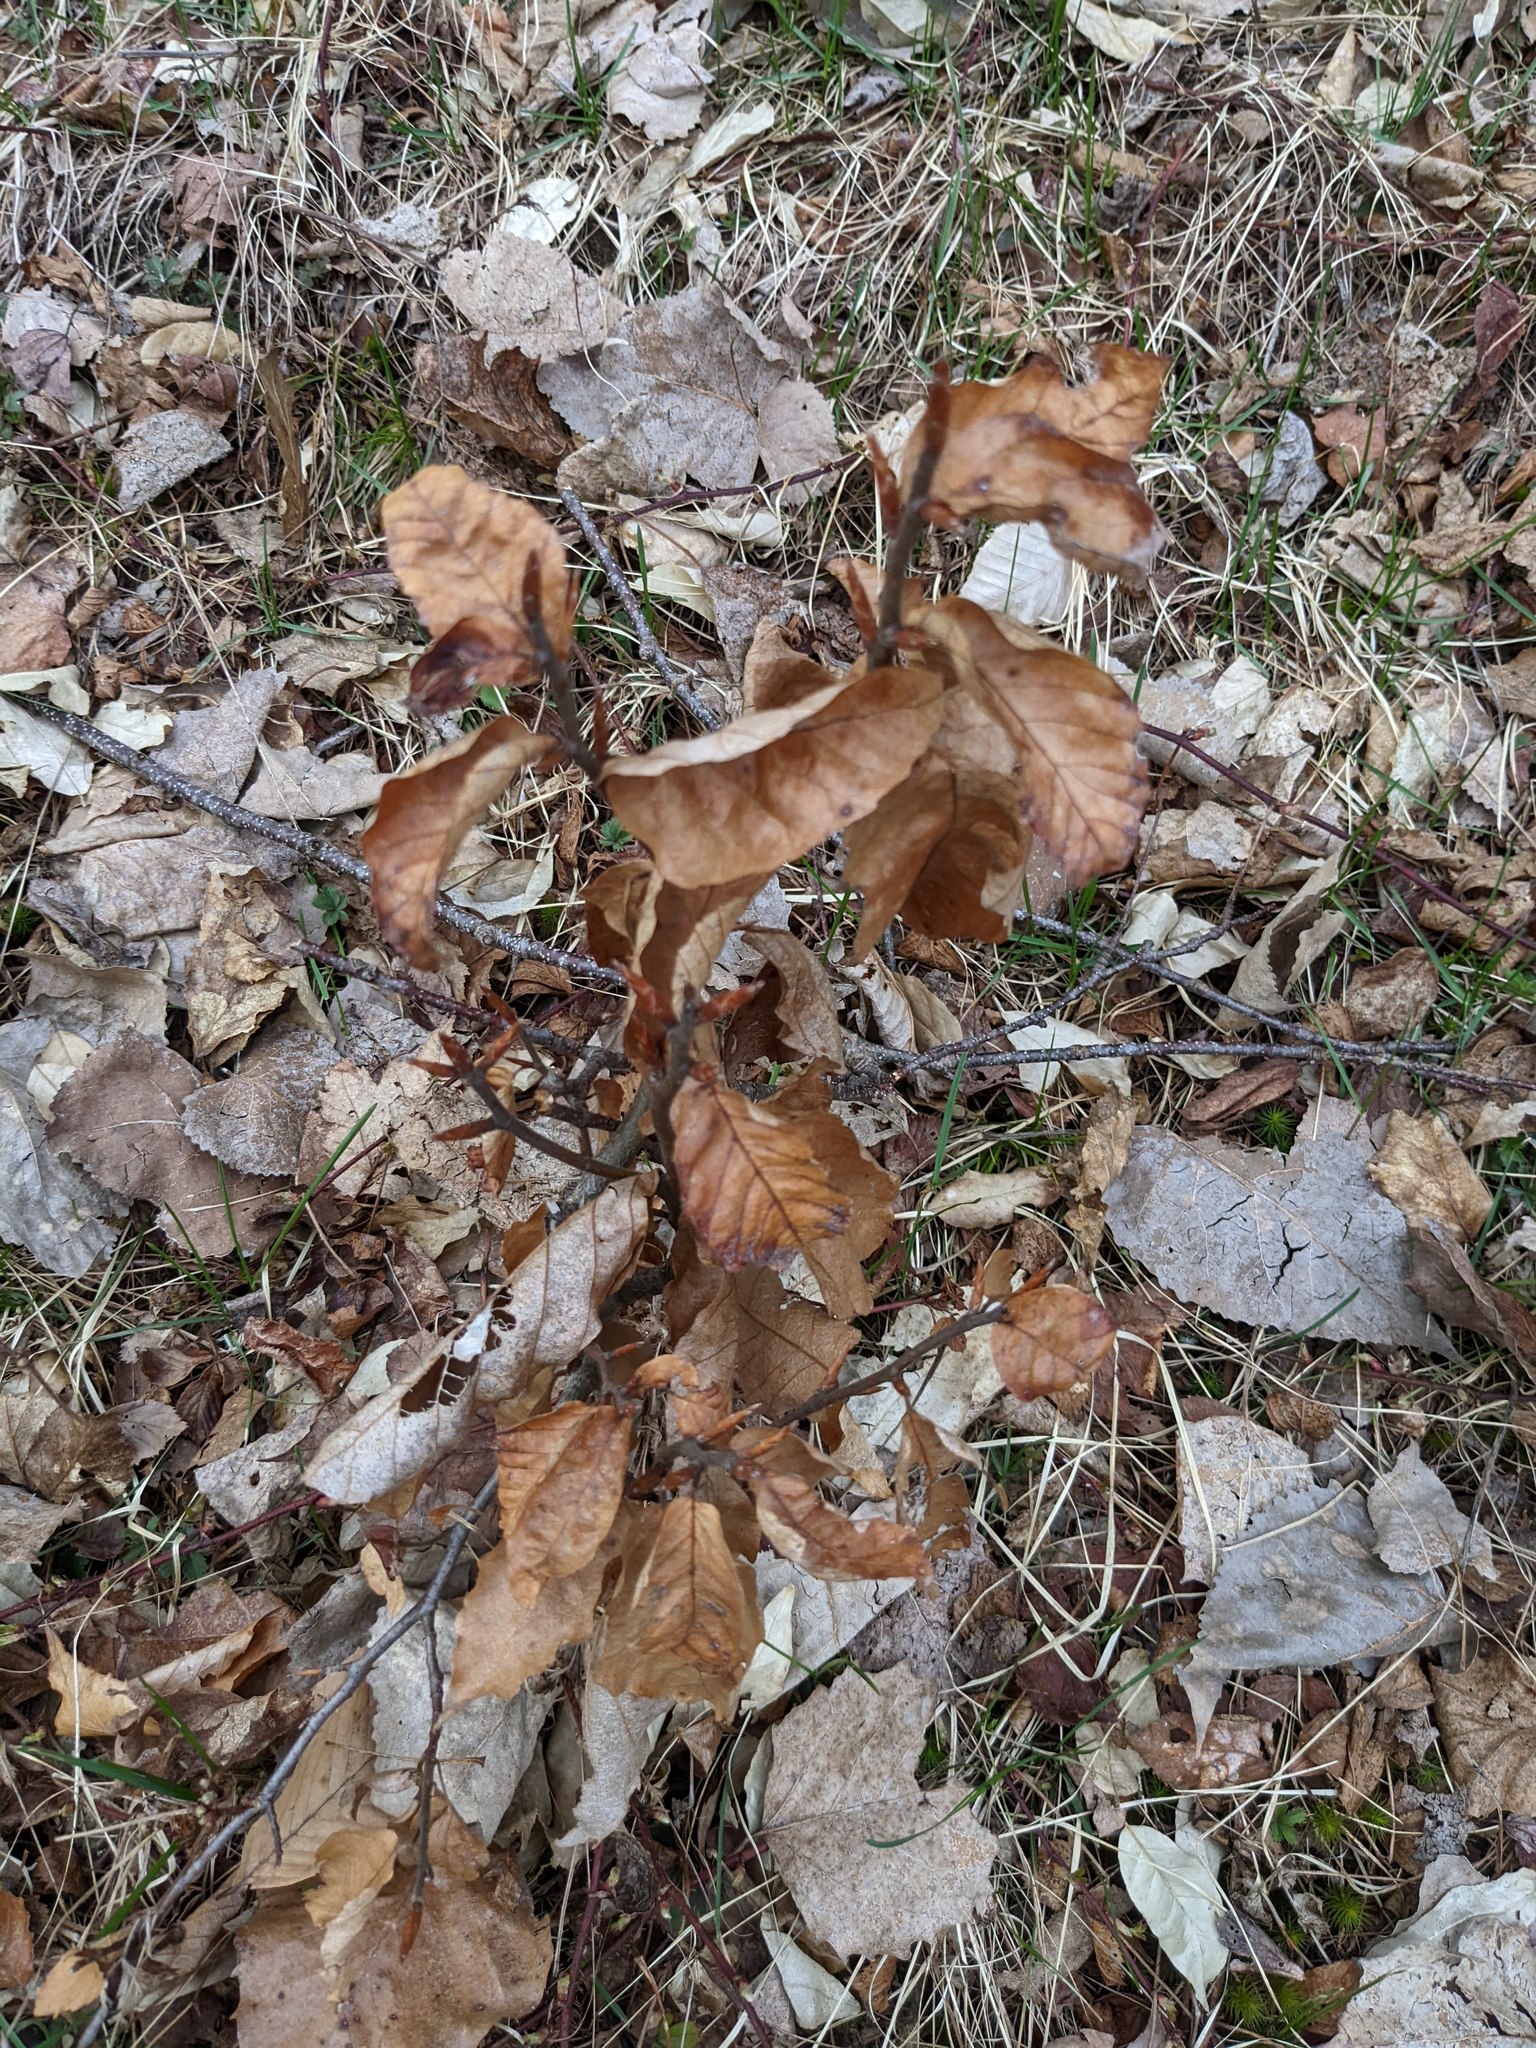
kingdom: Plantae
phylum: Tracheophyta
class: Magnoliopsida
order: Fagales
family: Fagaceae
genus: Fagus
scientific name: Fagus grandifolia
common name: American beech
